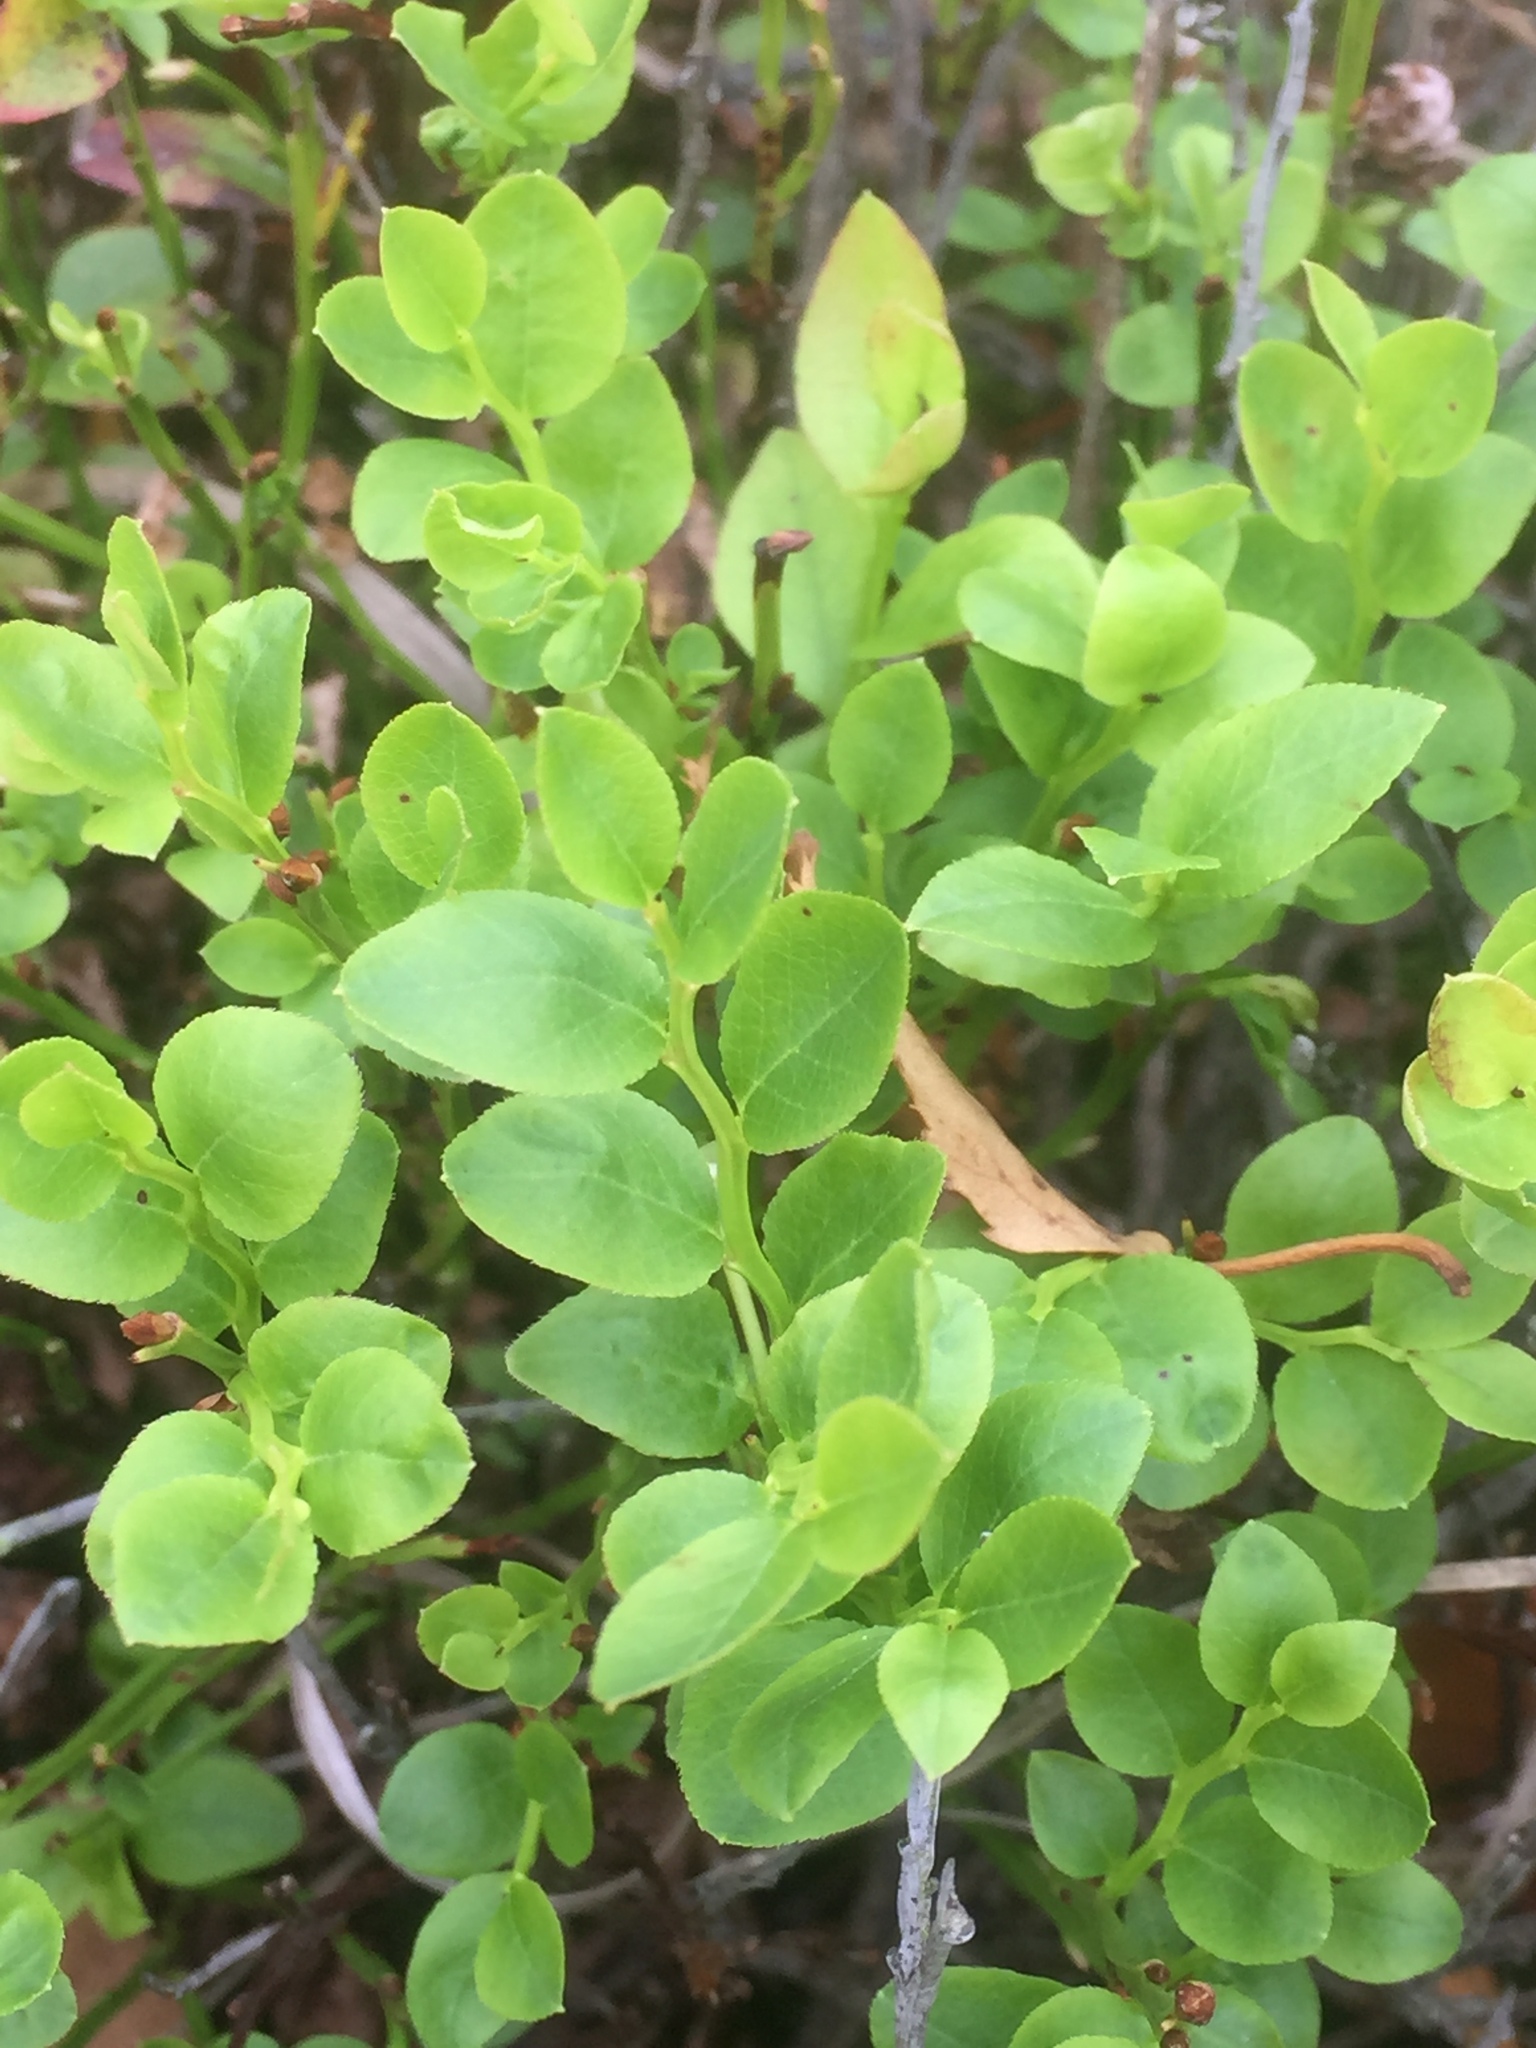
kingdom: Plantae
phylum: Tracheophyta
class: Magnoliopsida
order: Ericales
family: Ericaceae
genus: Vaccinium
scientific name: Vaccinium myrtillus
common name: Bilberry
